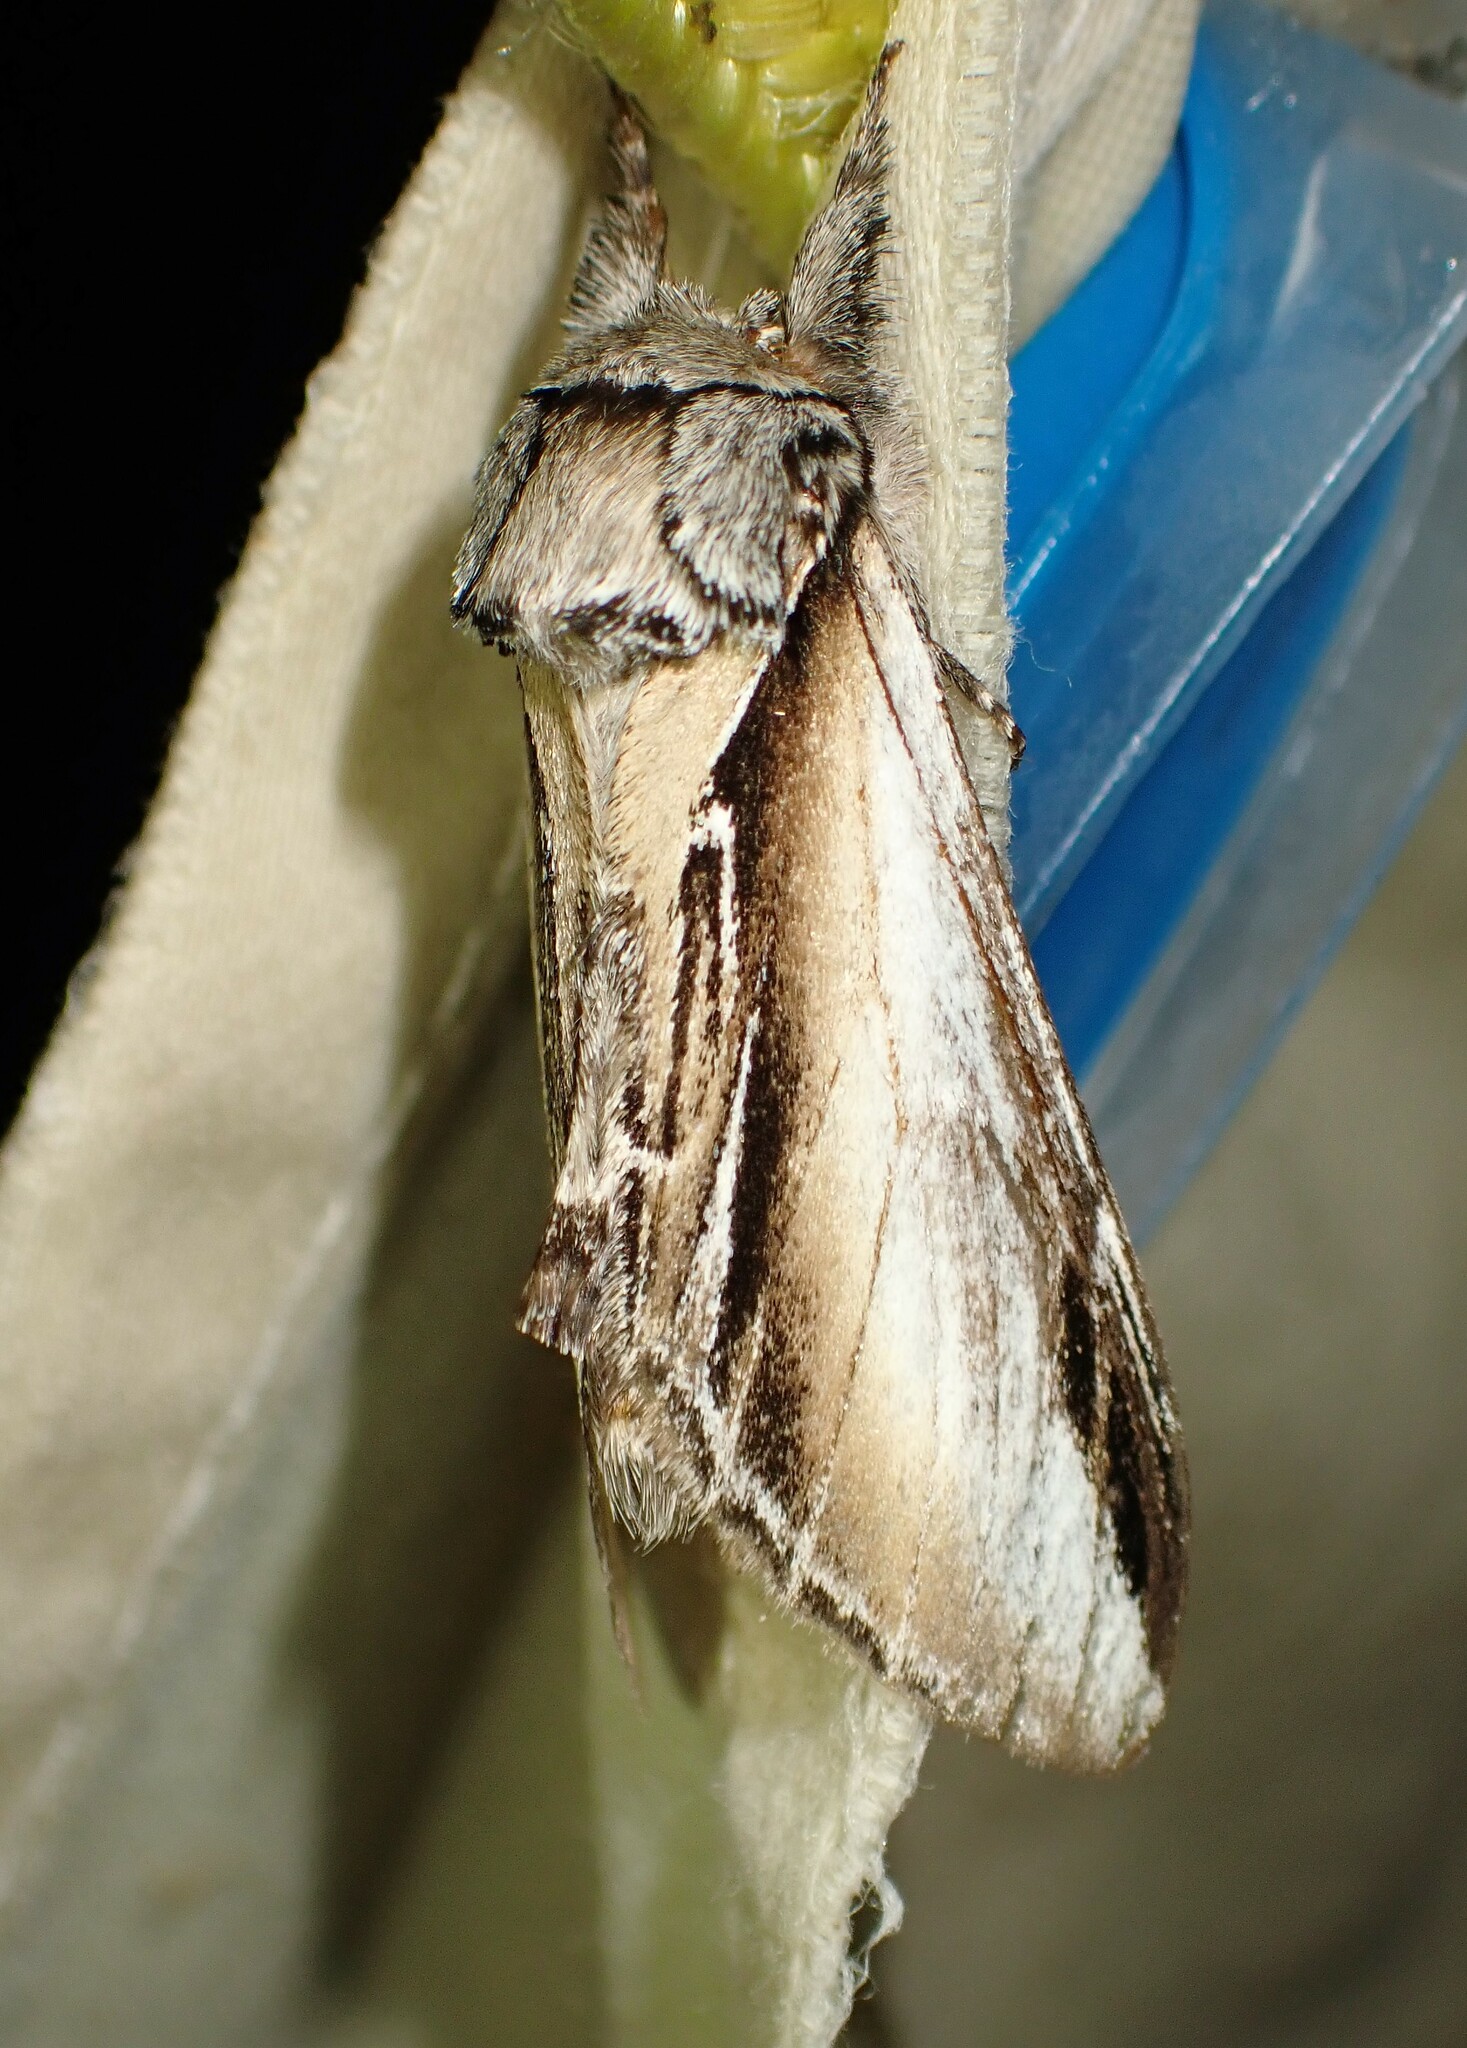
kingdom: Animalia
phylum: Arthropoda
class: Insecta
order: Lepidoptera
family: Notodontidae
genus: Pheosia
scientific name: Pheosia rimosa
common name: Black-rimmed prominent
